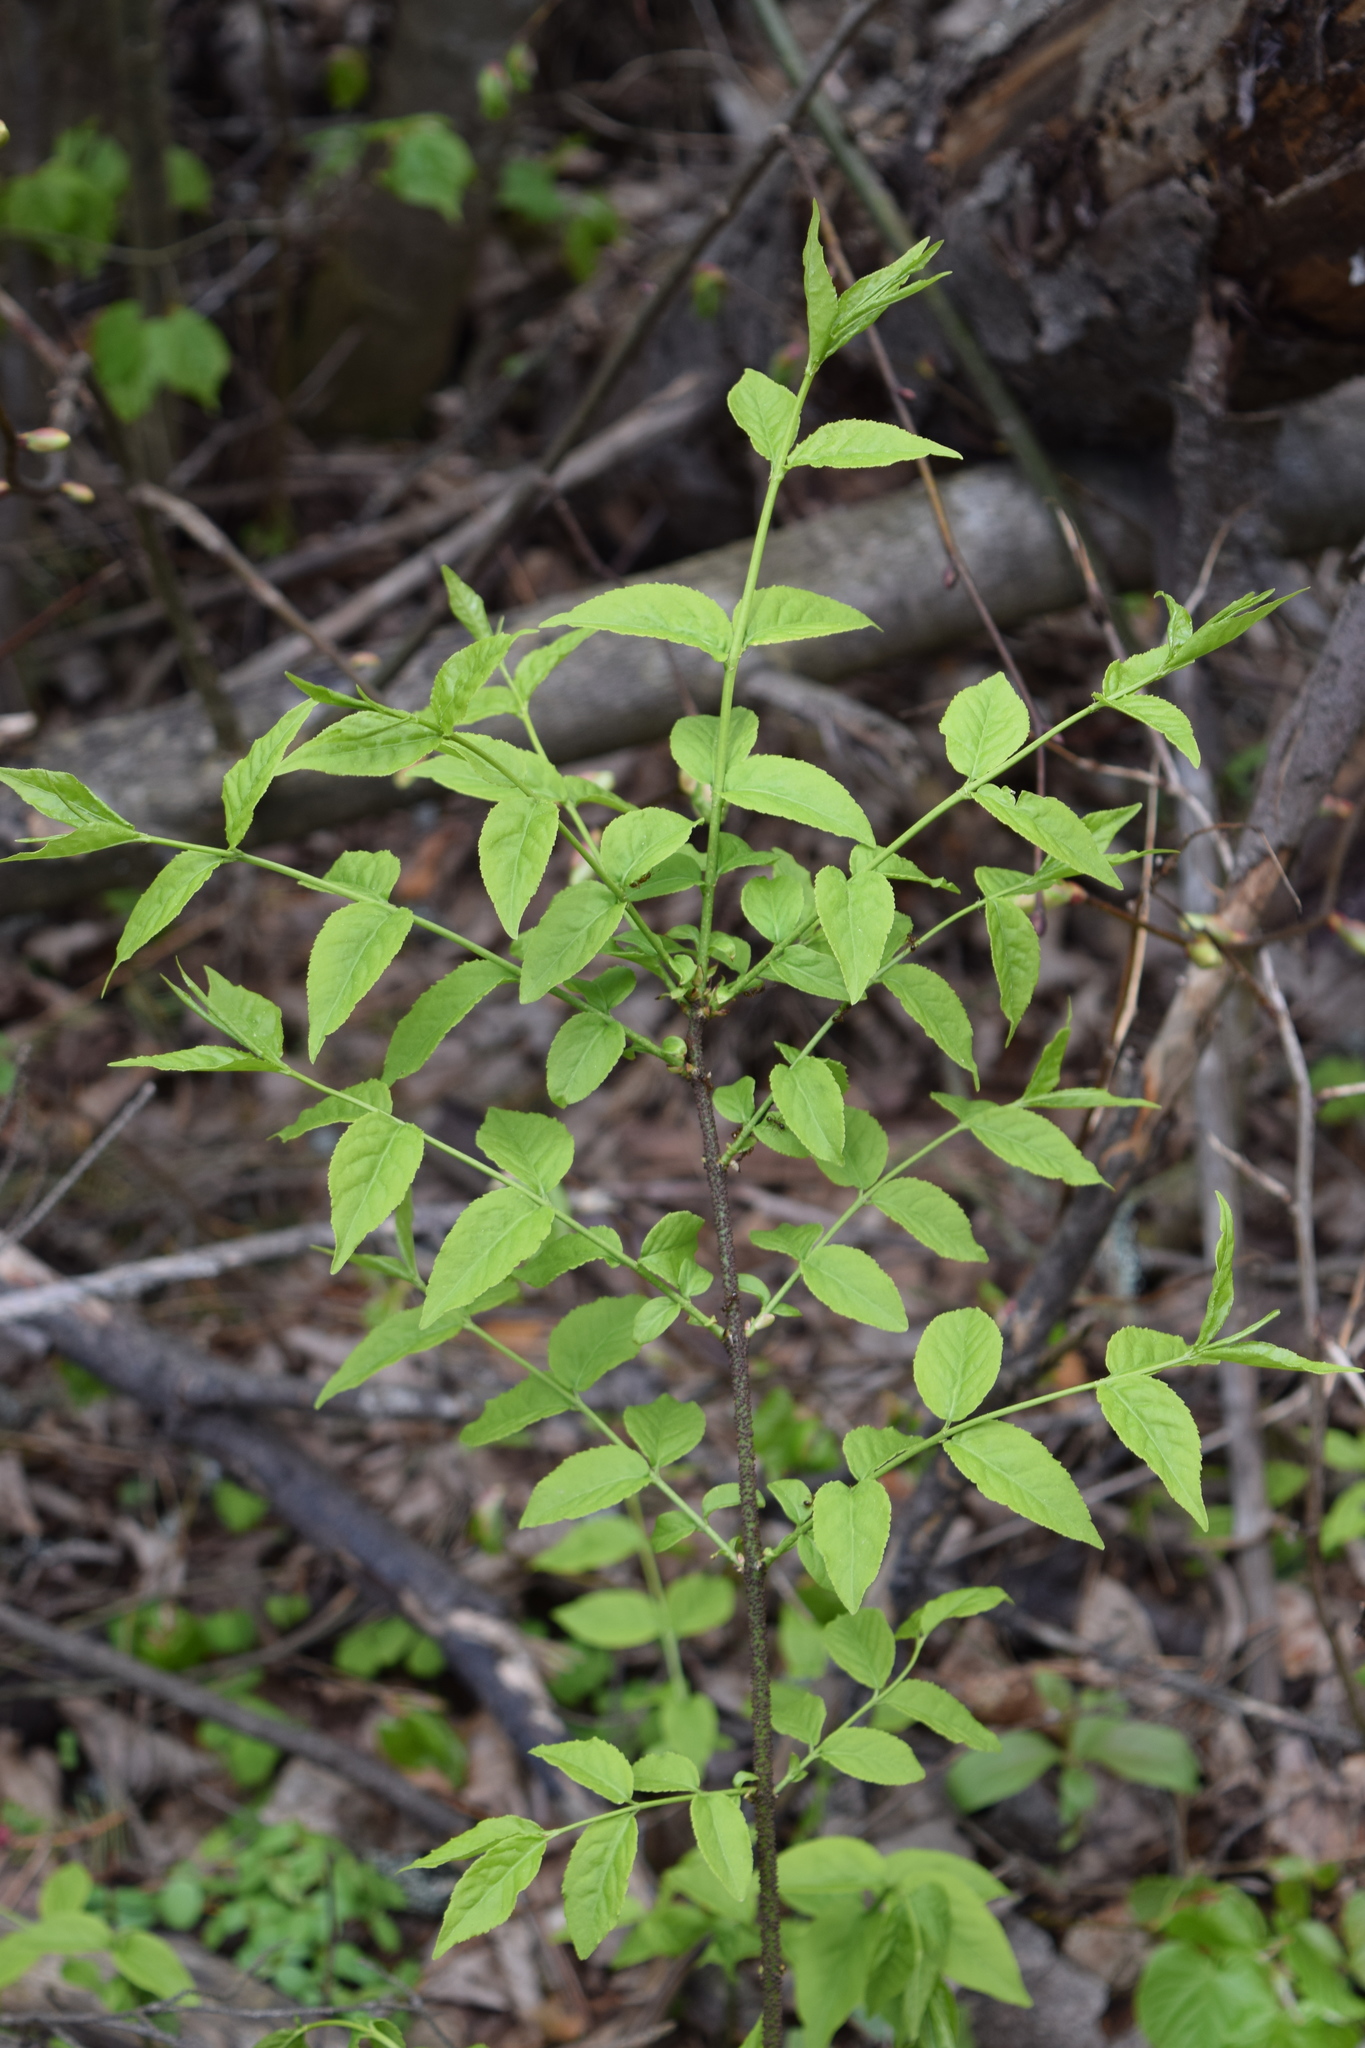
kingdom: Plantae
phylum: Tracheophyta
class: Magnoliopsida
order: Celastrales
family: Celastraceae
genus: Euonymus
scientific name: Euonymus verrucosus
